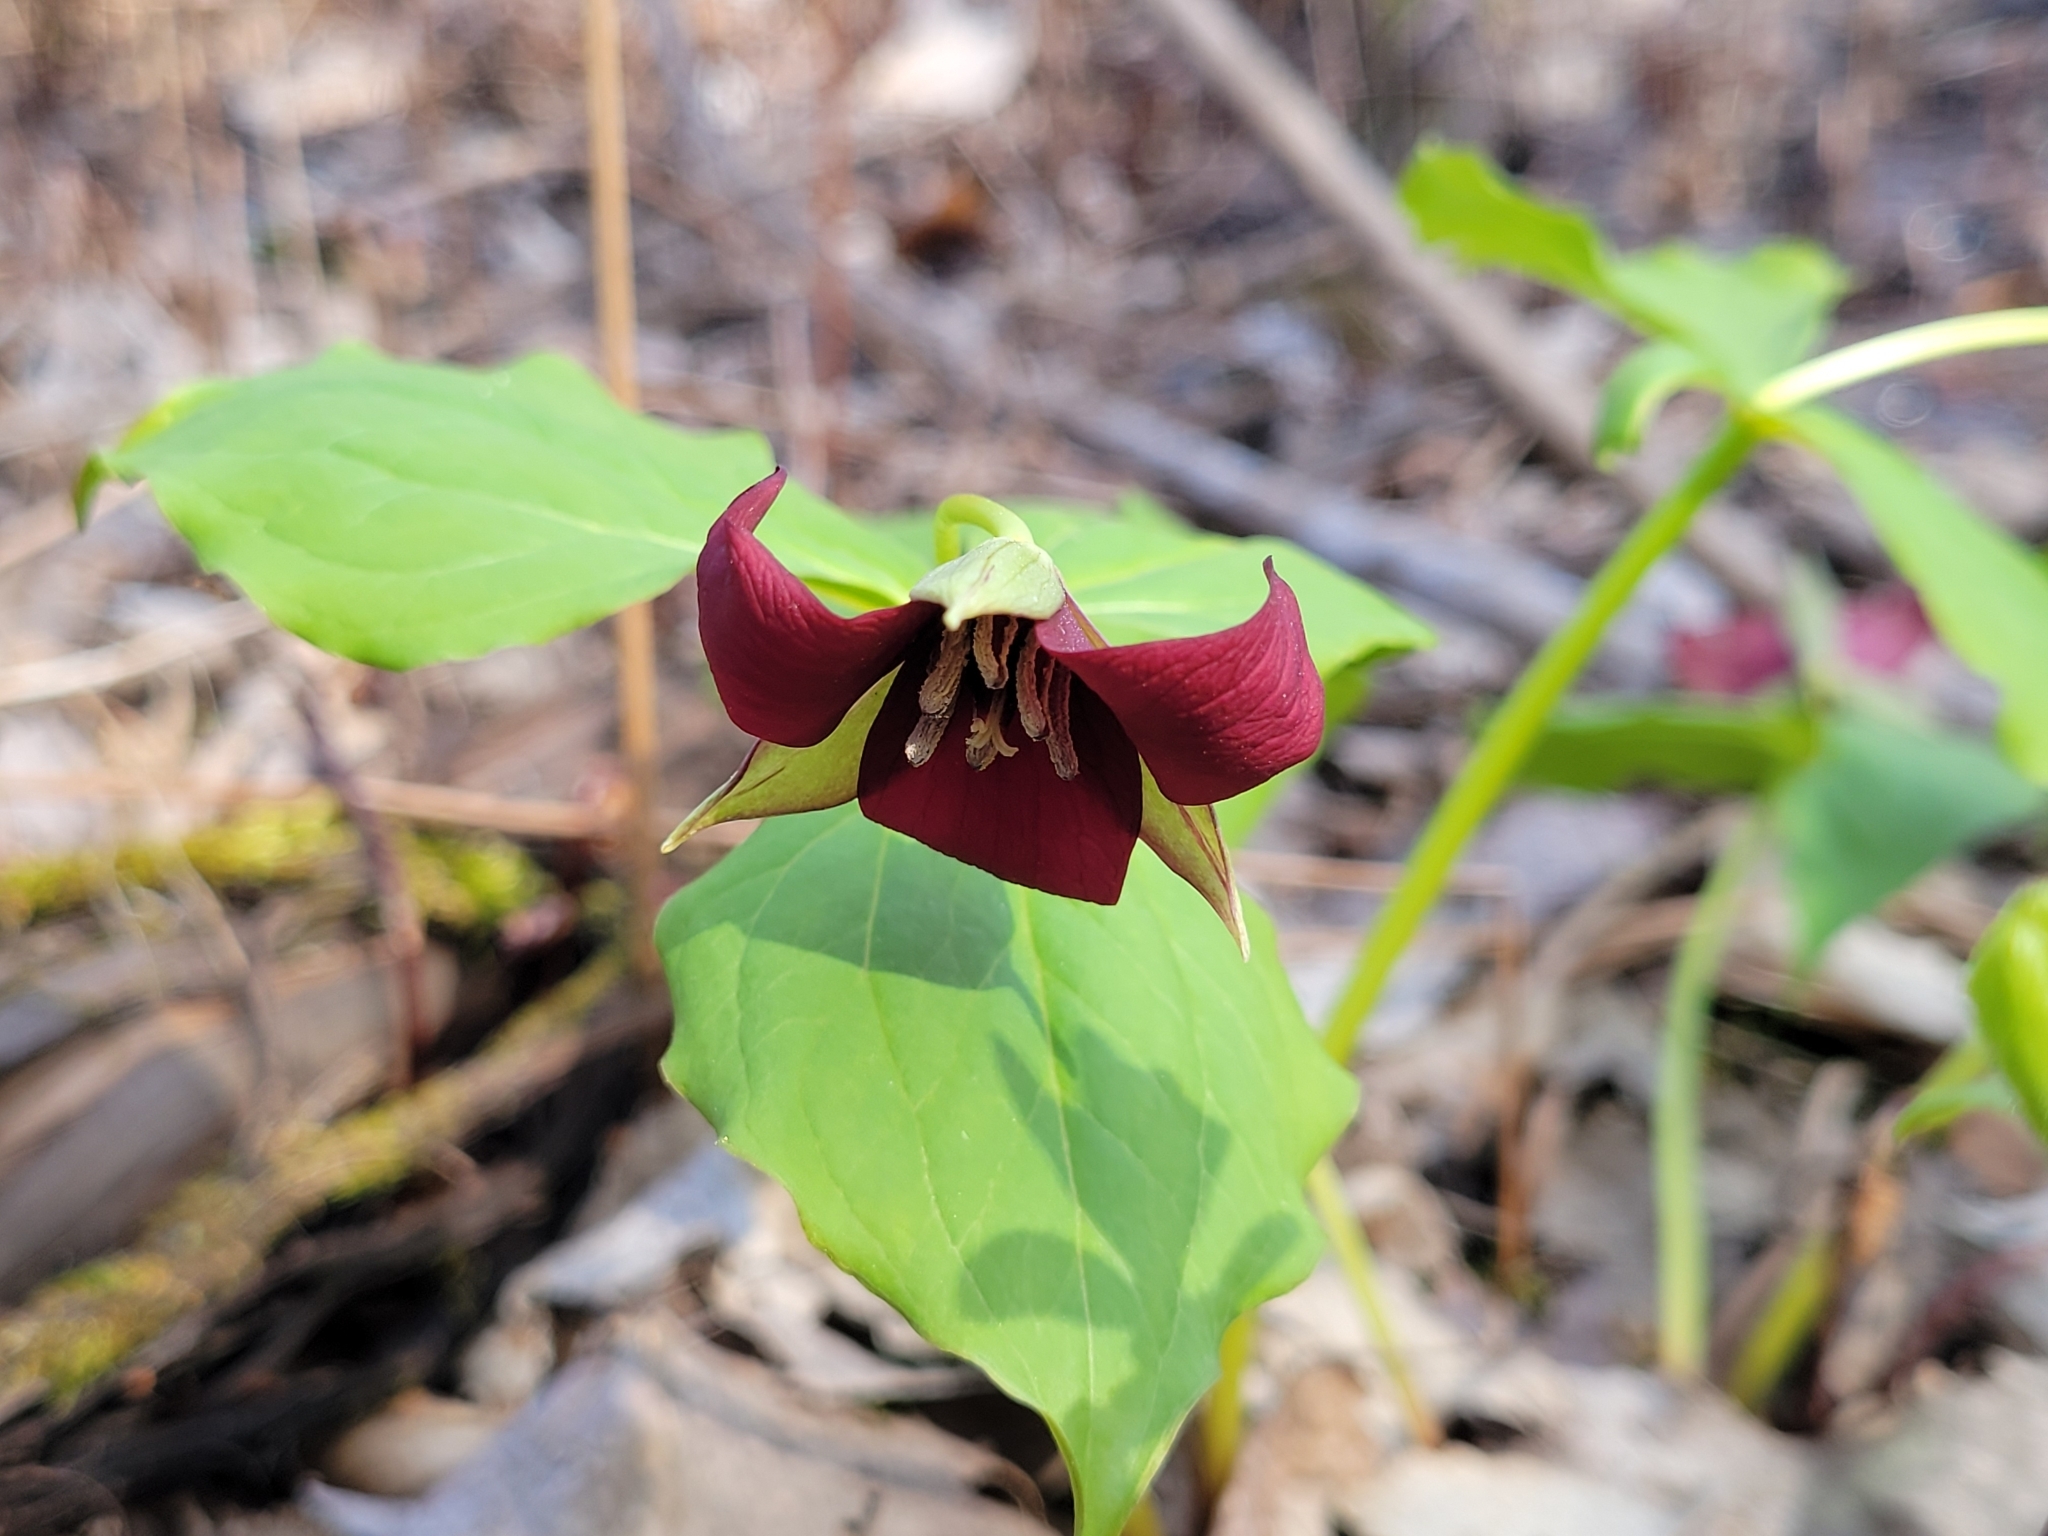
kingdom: Plantae
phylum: Tracheophyta
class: Liliopsida
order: Liliales
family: Melanthiaceae
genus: Trillium
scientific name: Trillium erectum
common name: Purple trillium
